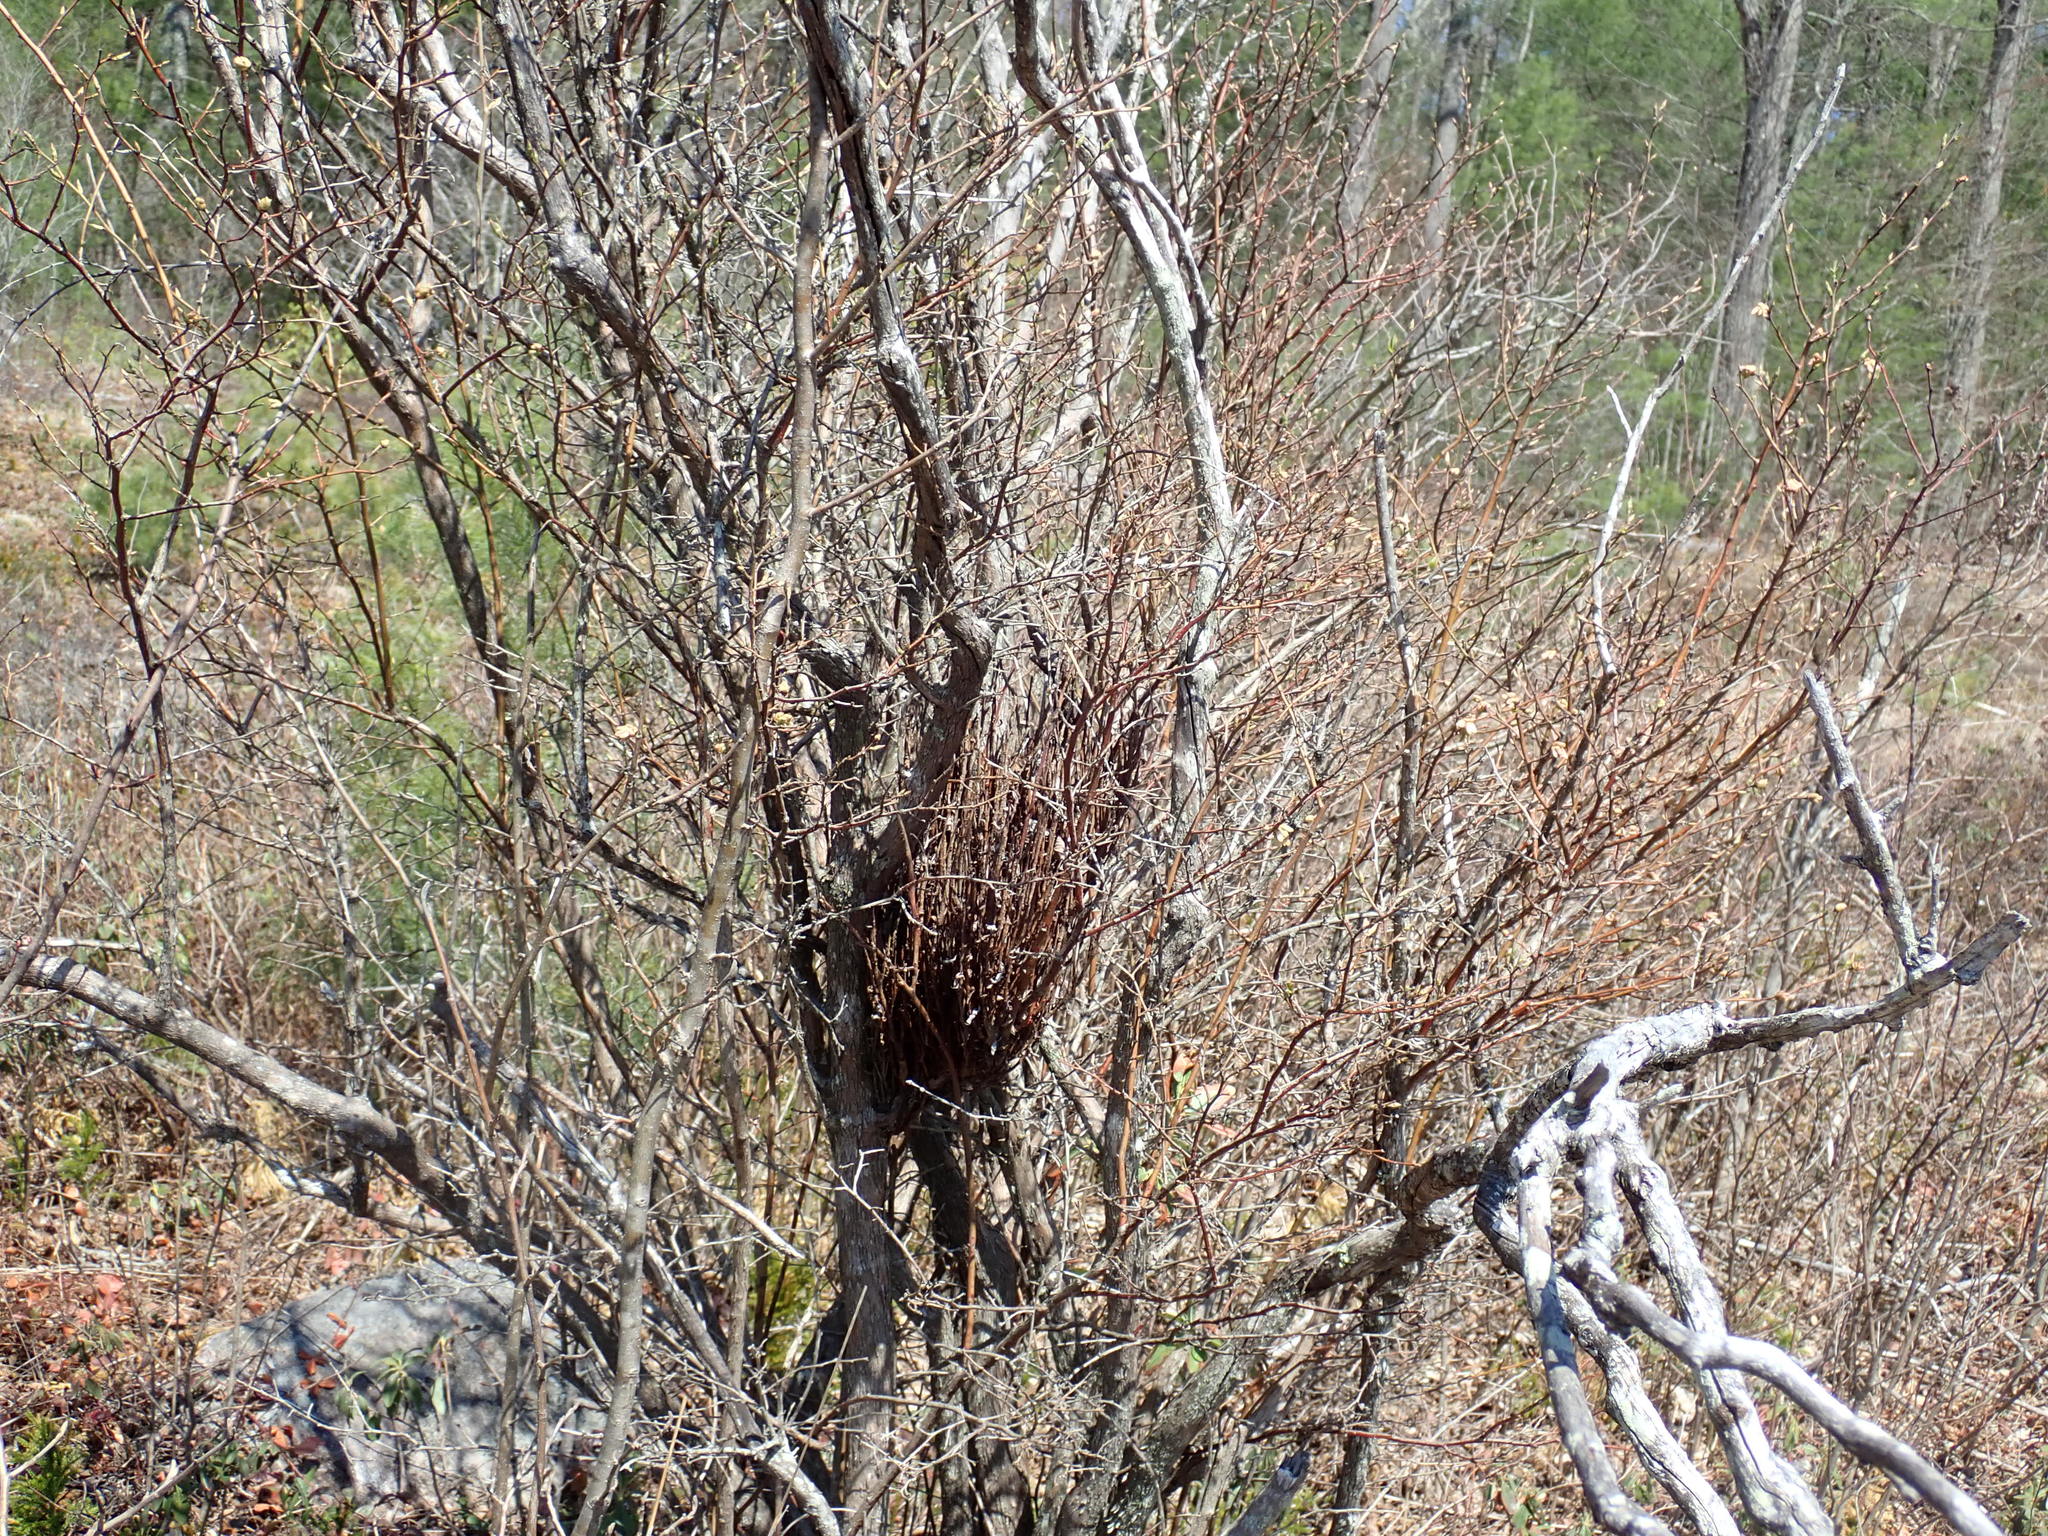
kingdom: Fungi
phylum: Basidiomycota
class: Pucciniomycetes
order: Pucciniales
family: Pucciniastraceae
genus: Calyptospora
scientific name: Calyptospora columnaris
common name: Huckleberry broom rust fungus
